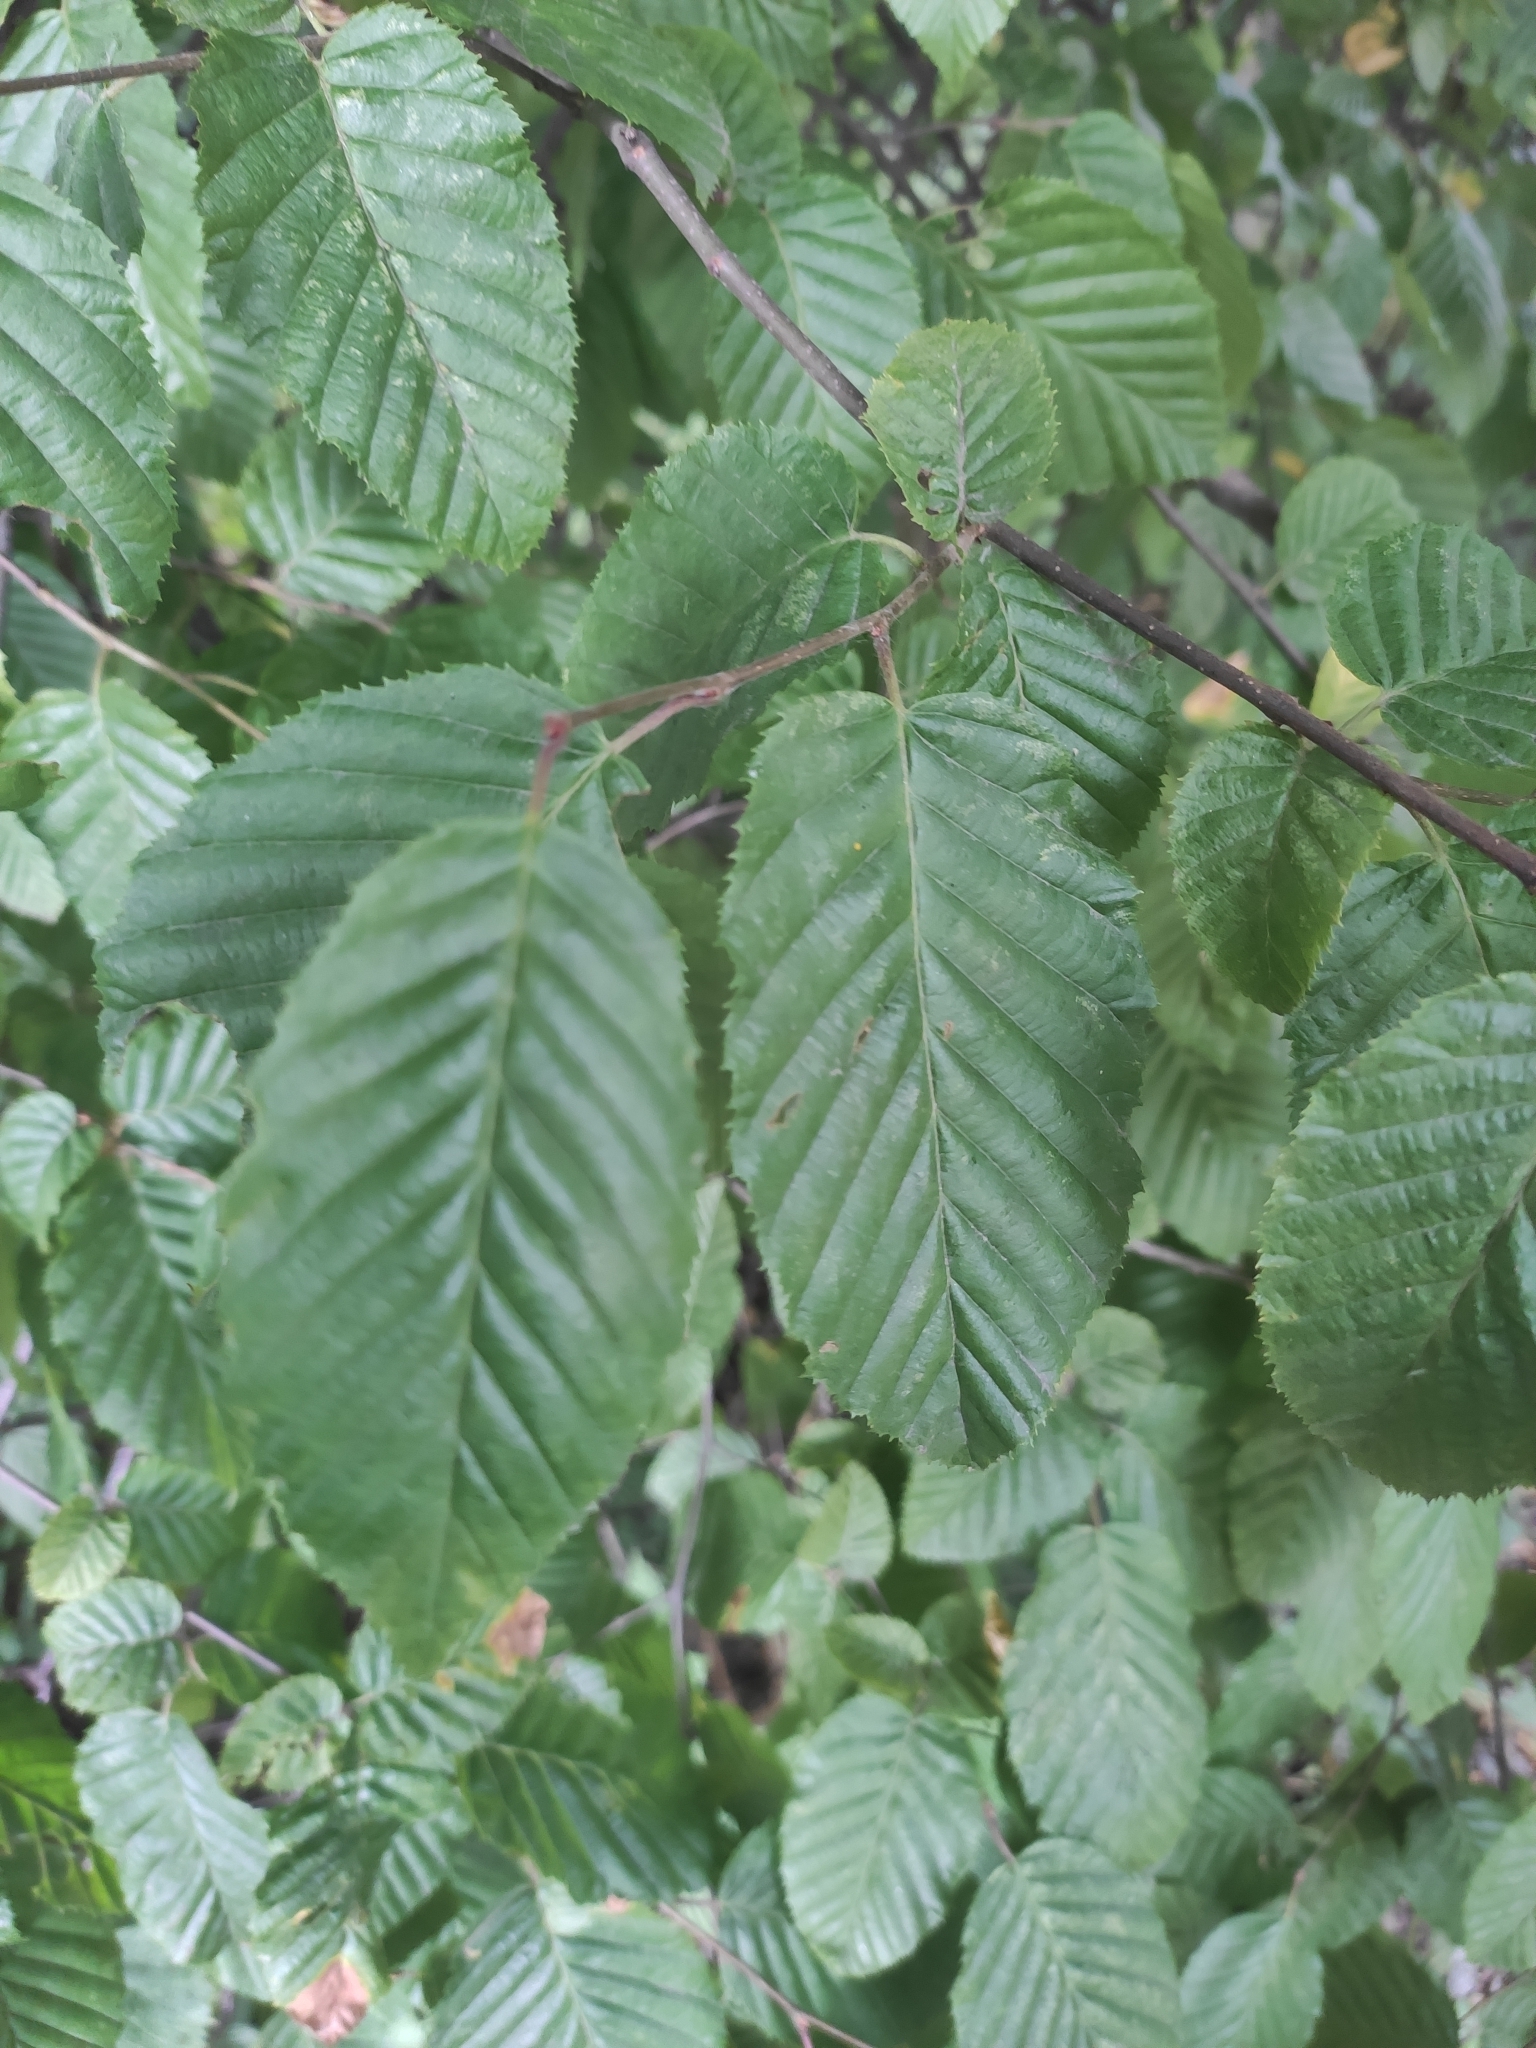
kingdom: Plantae
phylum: Tracheophyta
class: Magnoliopsida
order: Fagales
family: Betulaceae
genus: Carpinus
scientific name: Carpinus betulus
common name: Hornbeam
